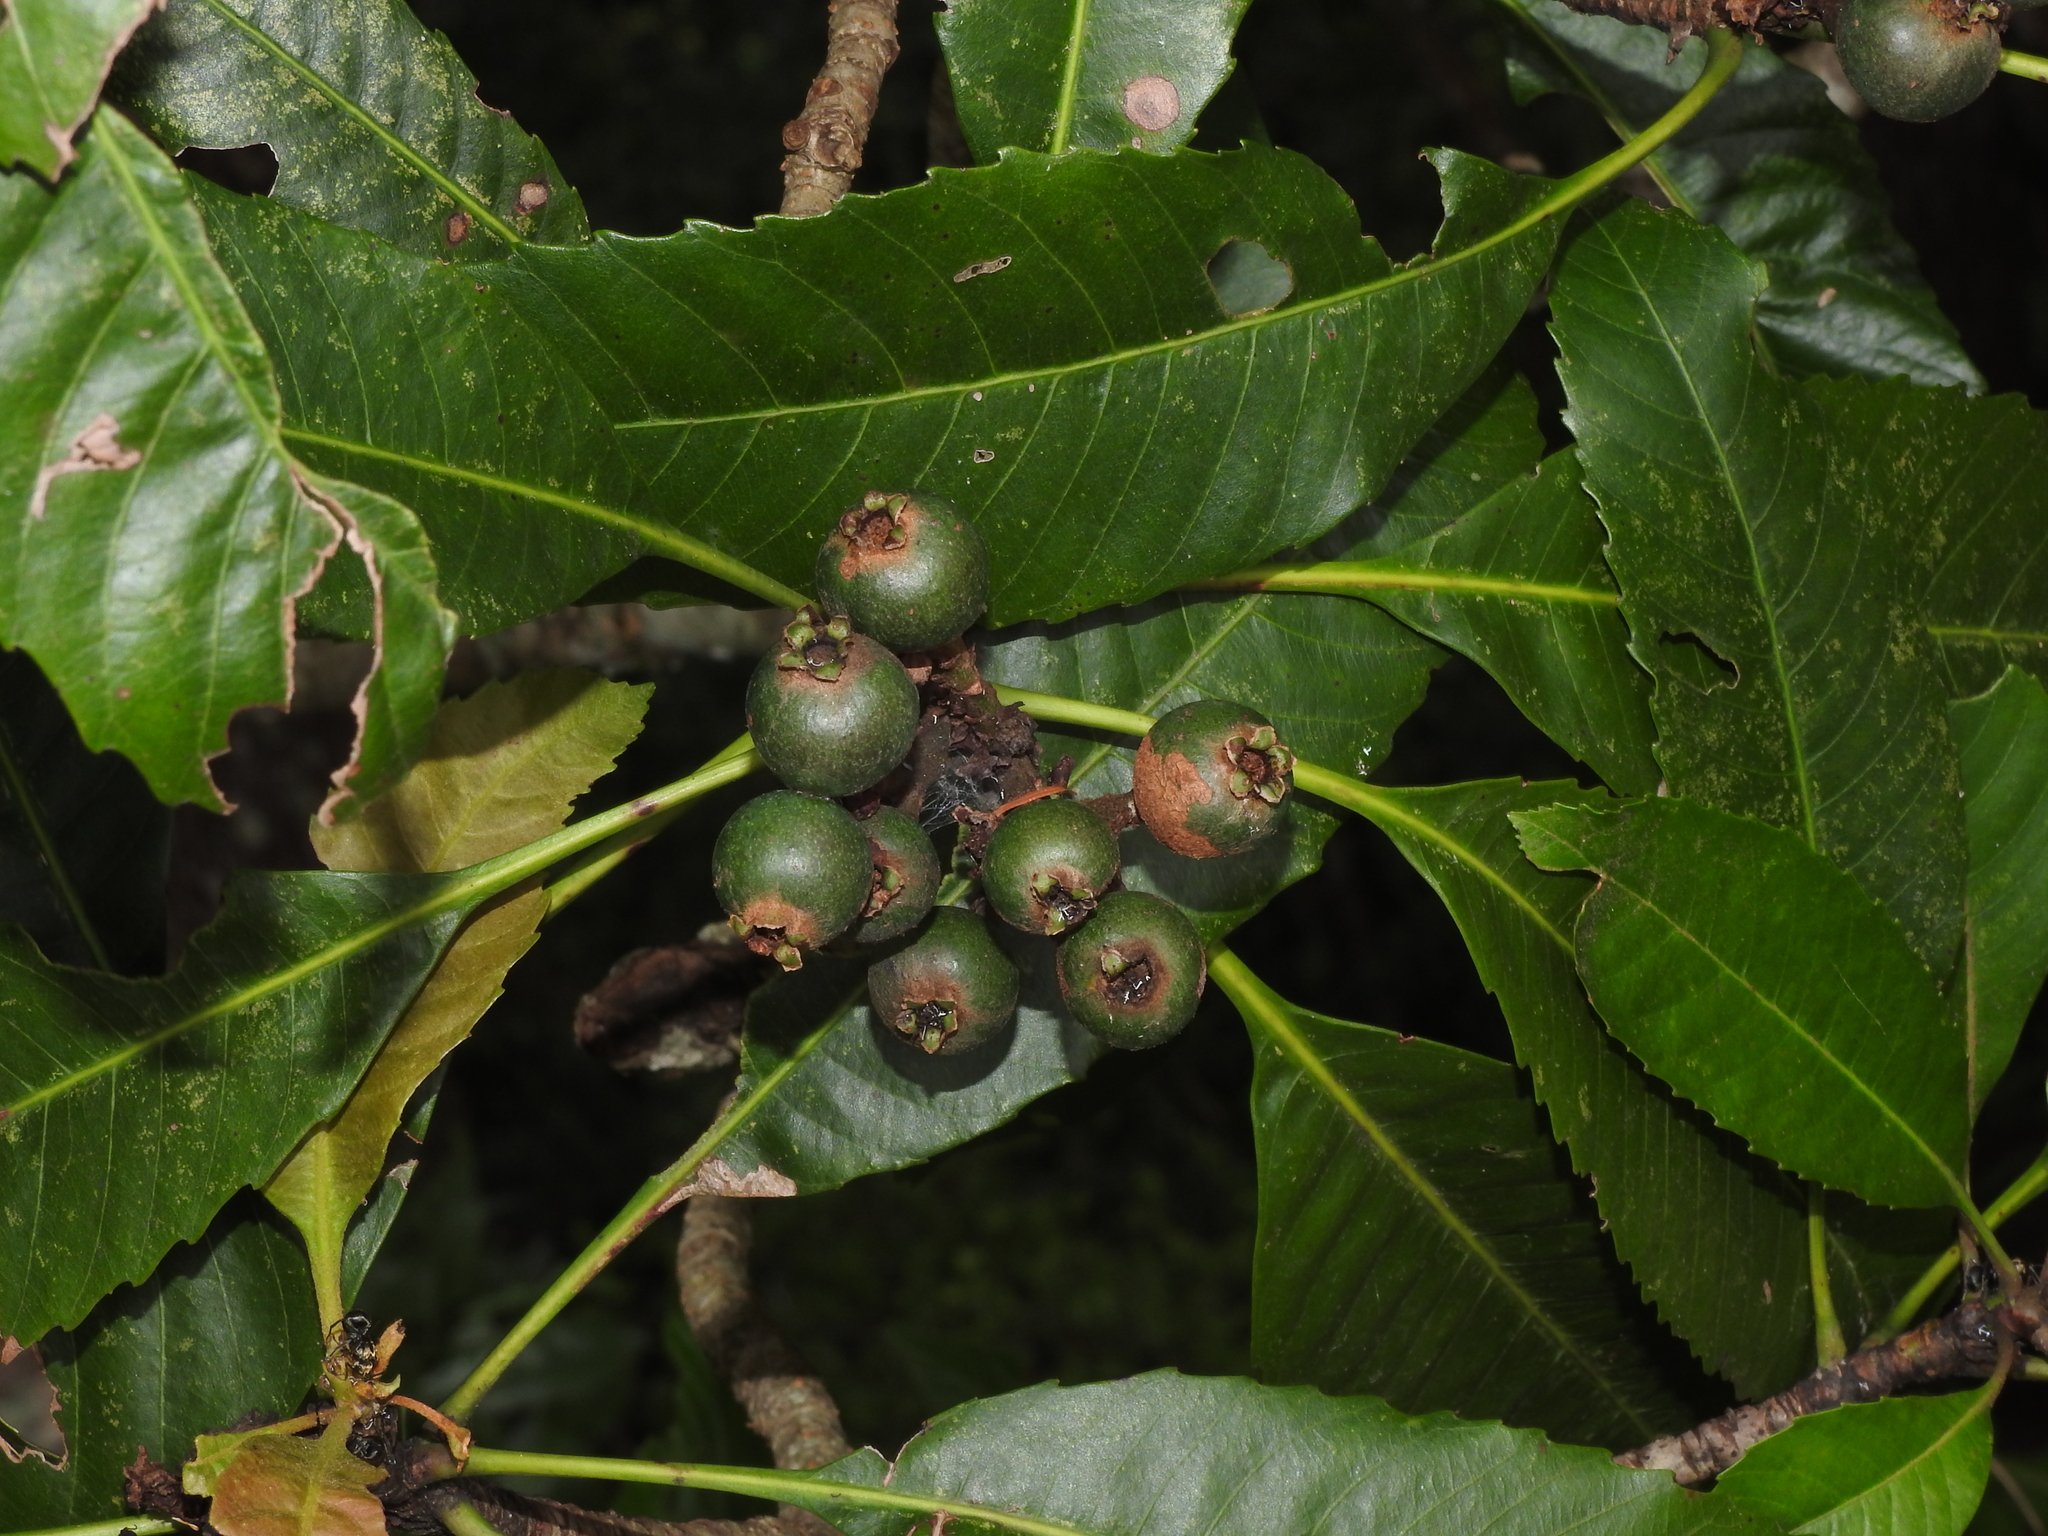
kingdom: Plantae
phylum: Tracheophyta
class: Magnoliopsida
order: Rosales
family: Rosaceae
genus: Rhaphiolepis
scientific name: Rhaphiolepis deflexa
